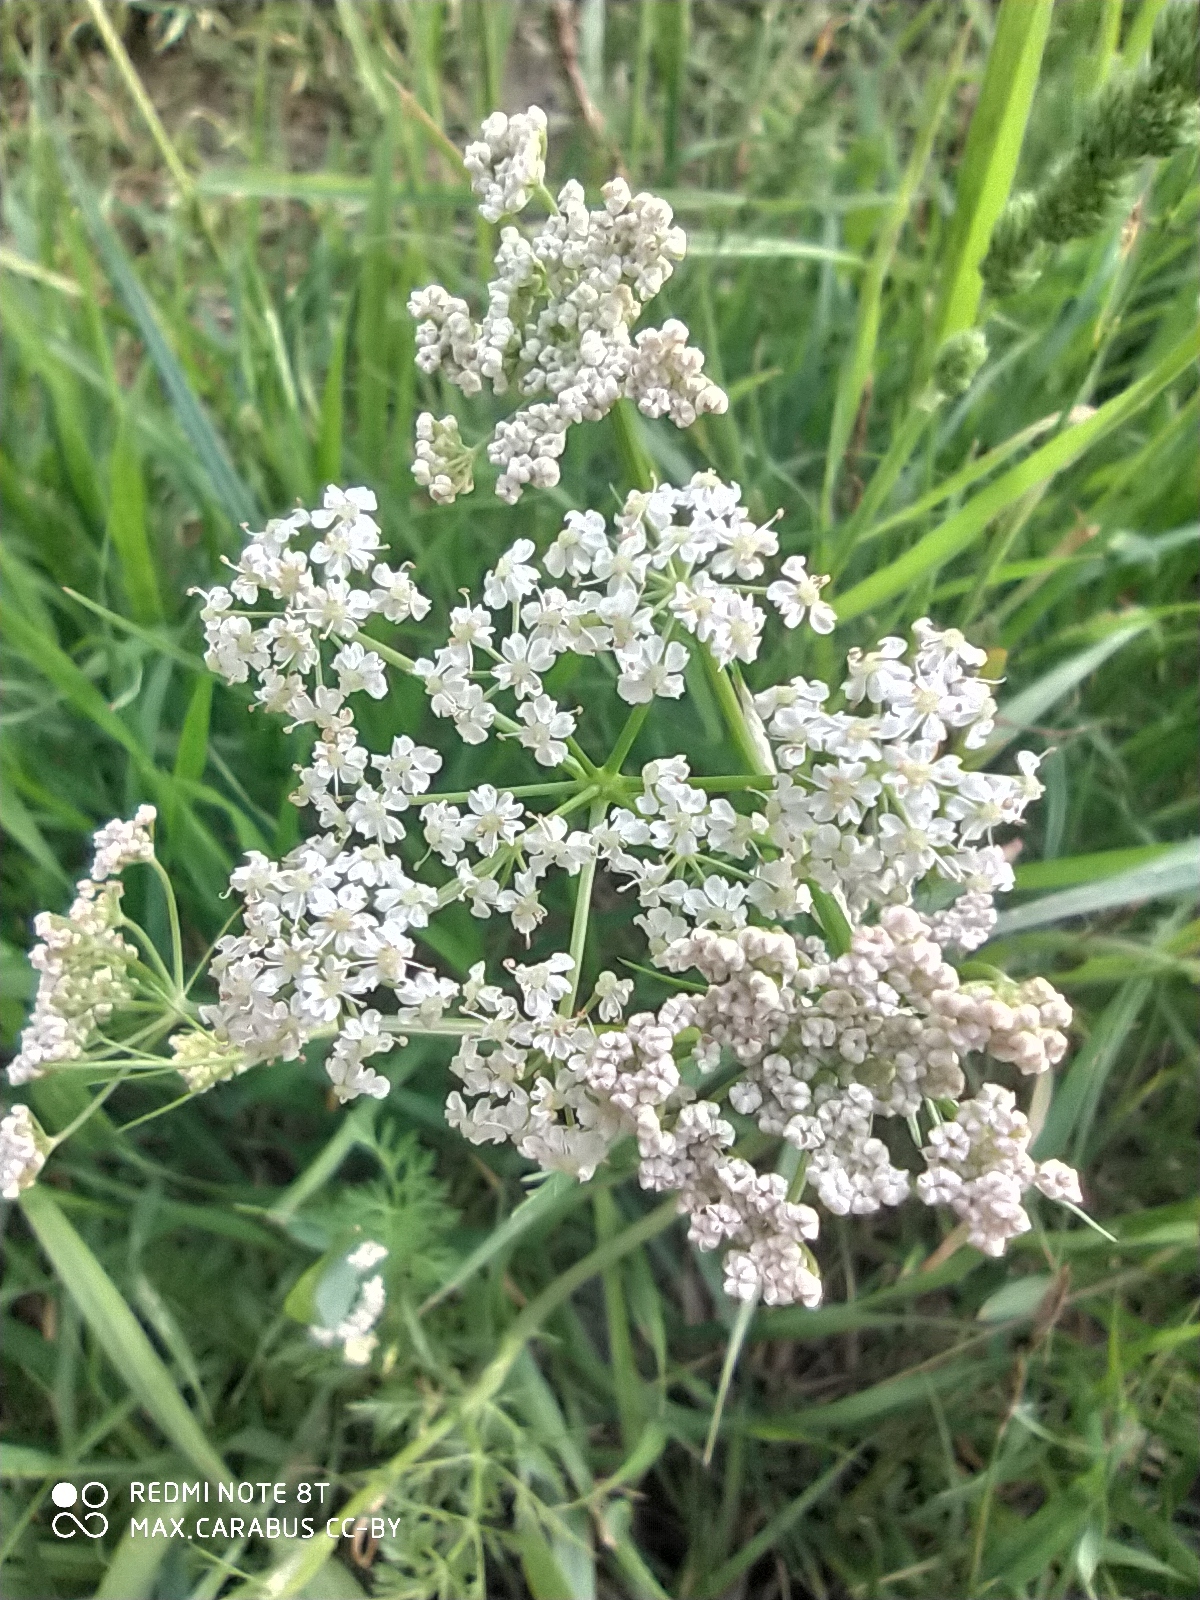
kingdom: Plantae
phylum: Tracheophyta
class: Magnoliopsida
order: Apiales
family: Apiaceae
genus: Carum
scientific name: Carum carvi
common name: Caraway
